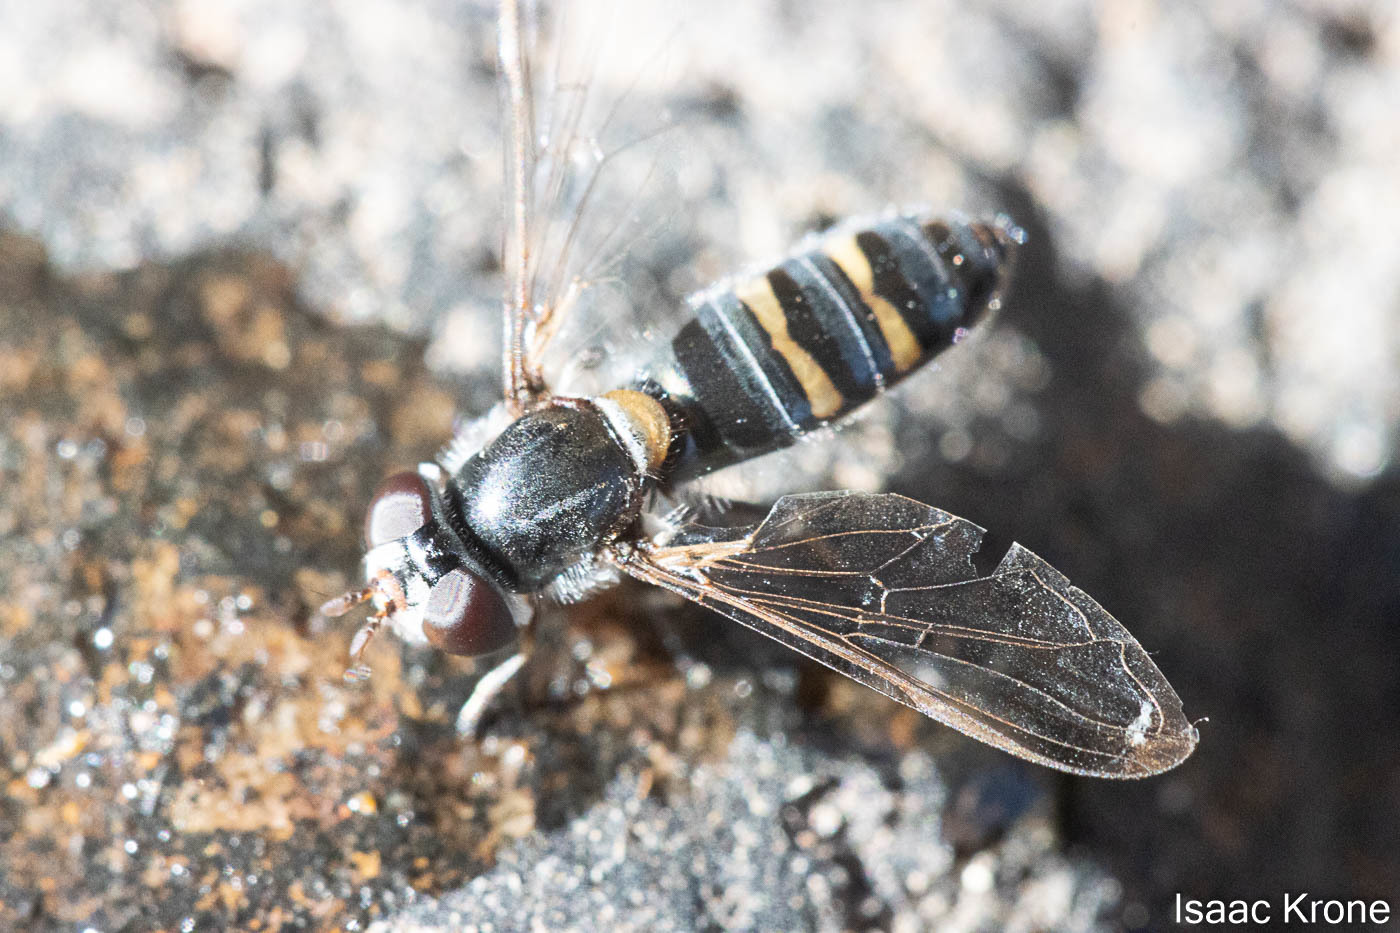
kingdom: Animalia
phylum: Arthropoda
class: Insecta
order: Diptera
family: Syrphidae
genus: Pseudoscaeva
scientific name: Pseudoscaeva diversifasciata
